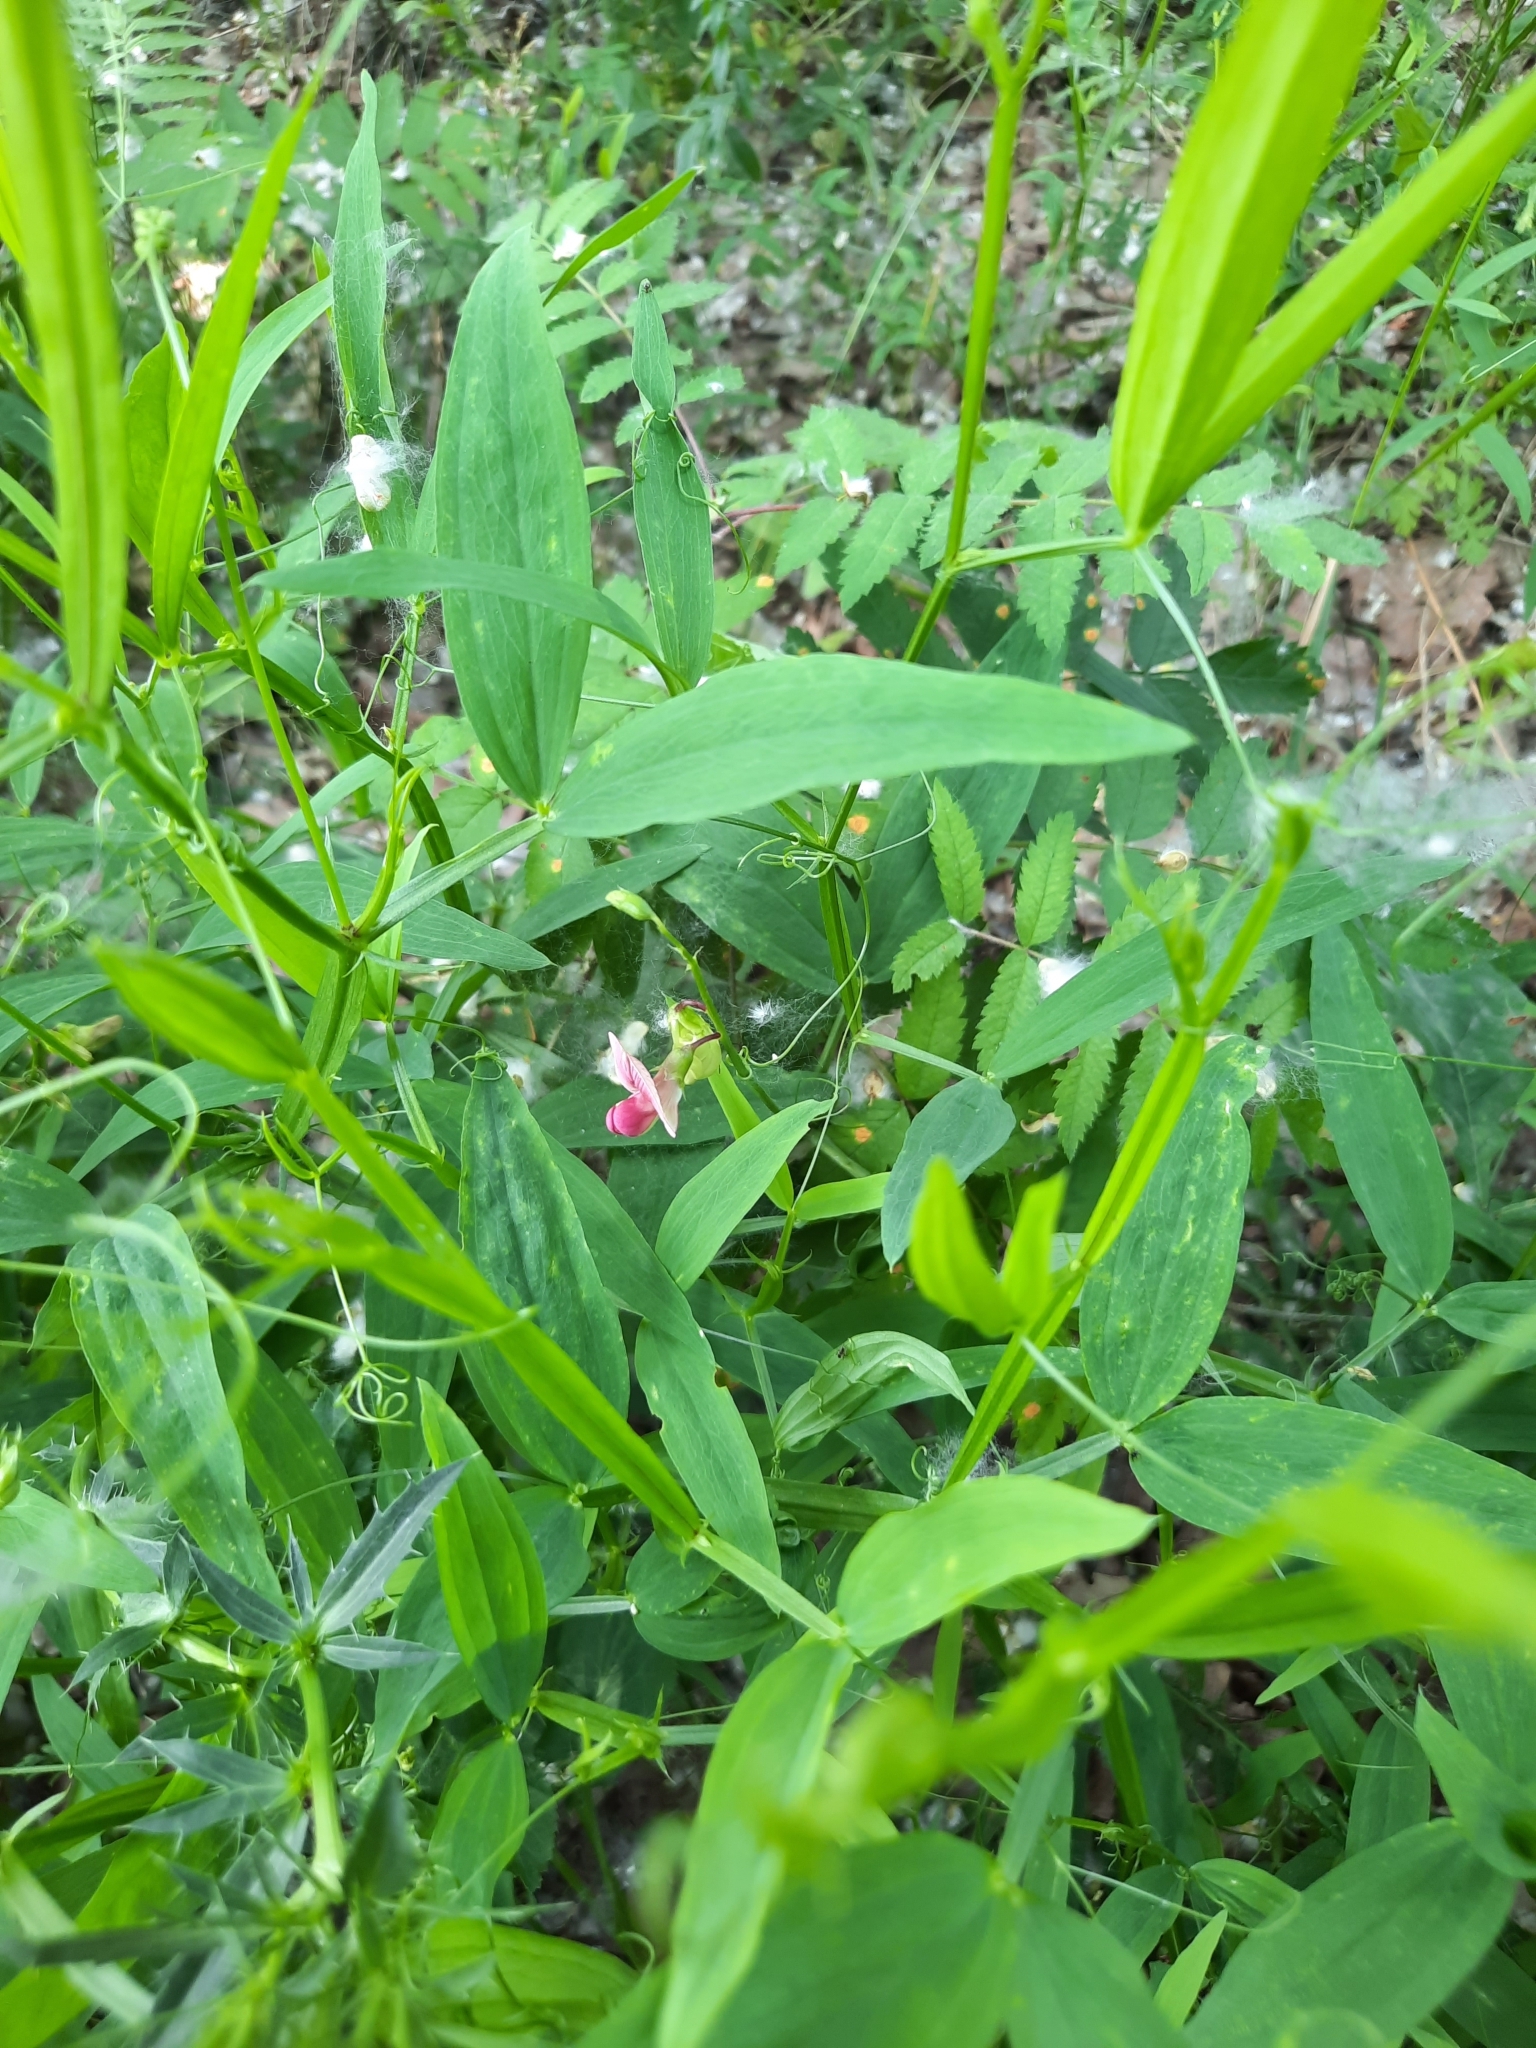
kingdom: Plantae
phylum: Tracheophyta
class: Magnoliopsida
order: Fabales
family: Fabaceae
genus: Lathyrus
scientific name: Lathyrus sylvestris
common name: Flat pea
